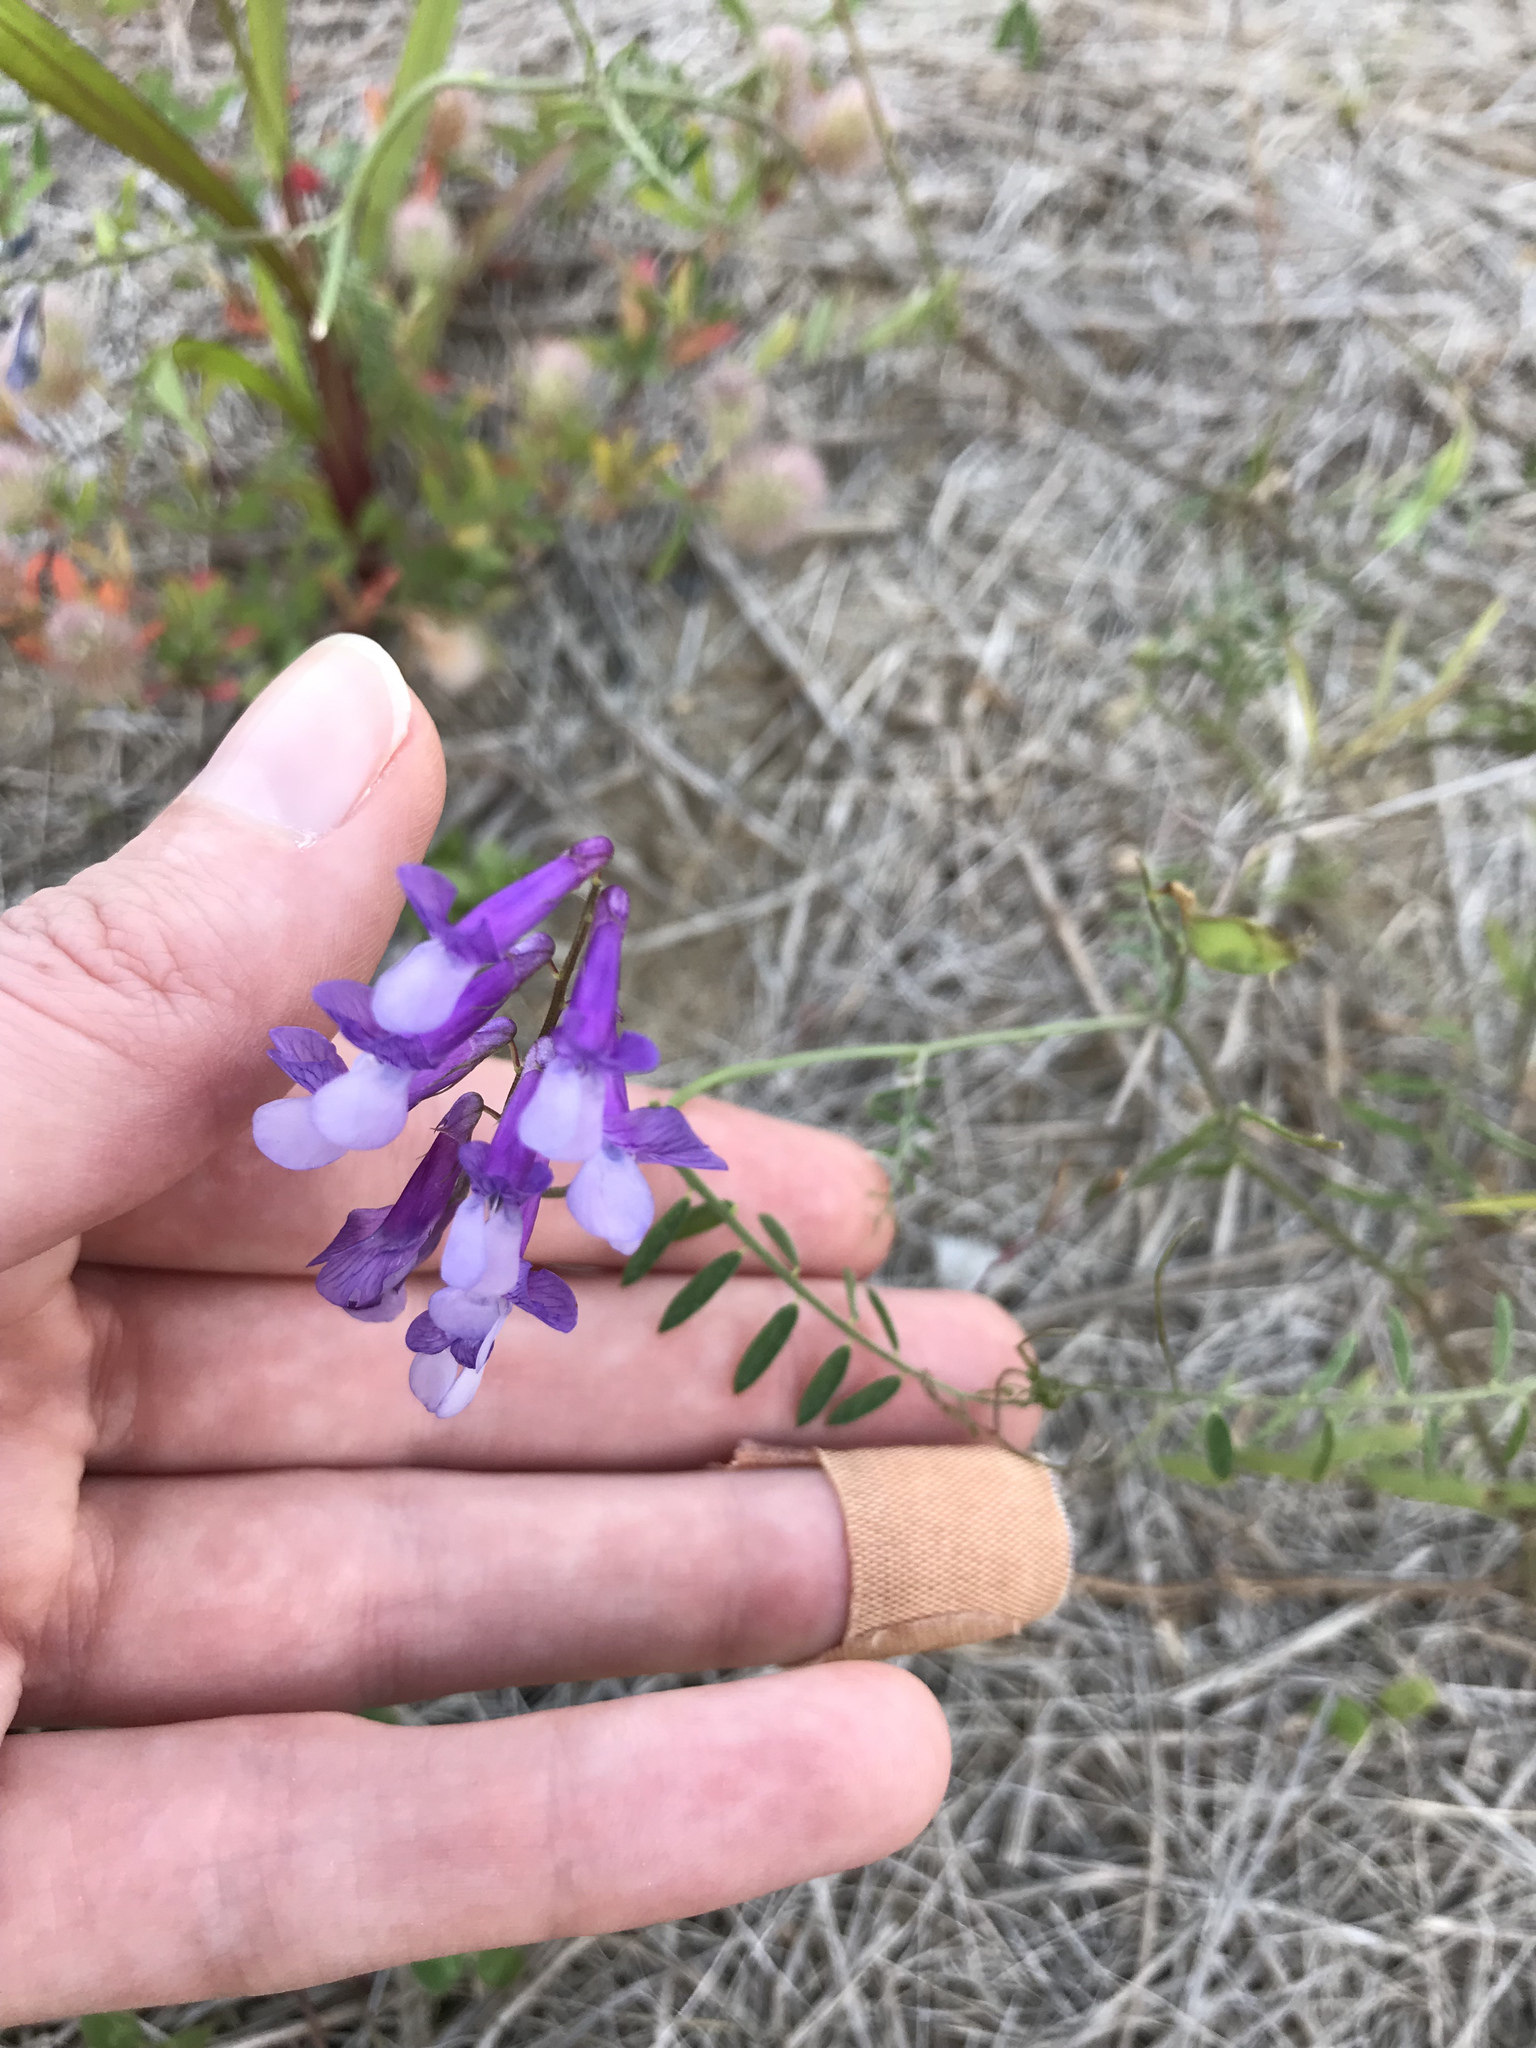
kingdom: Plantae
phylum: Tracheophyta
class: Magnoliopsida
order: Fabales
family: Fabaceae
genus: Vicia
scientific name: Vicia villosa
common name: Fodder vetch
